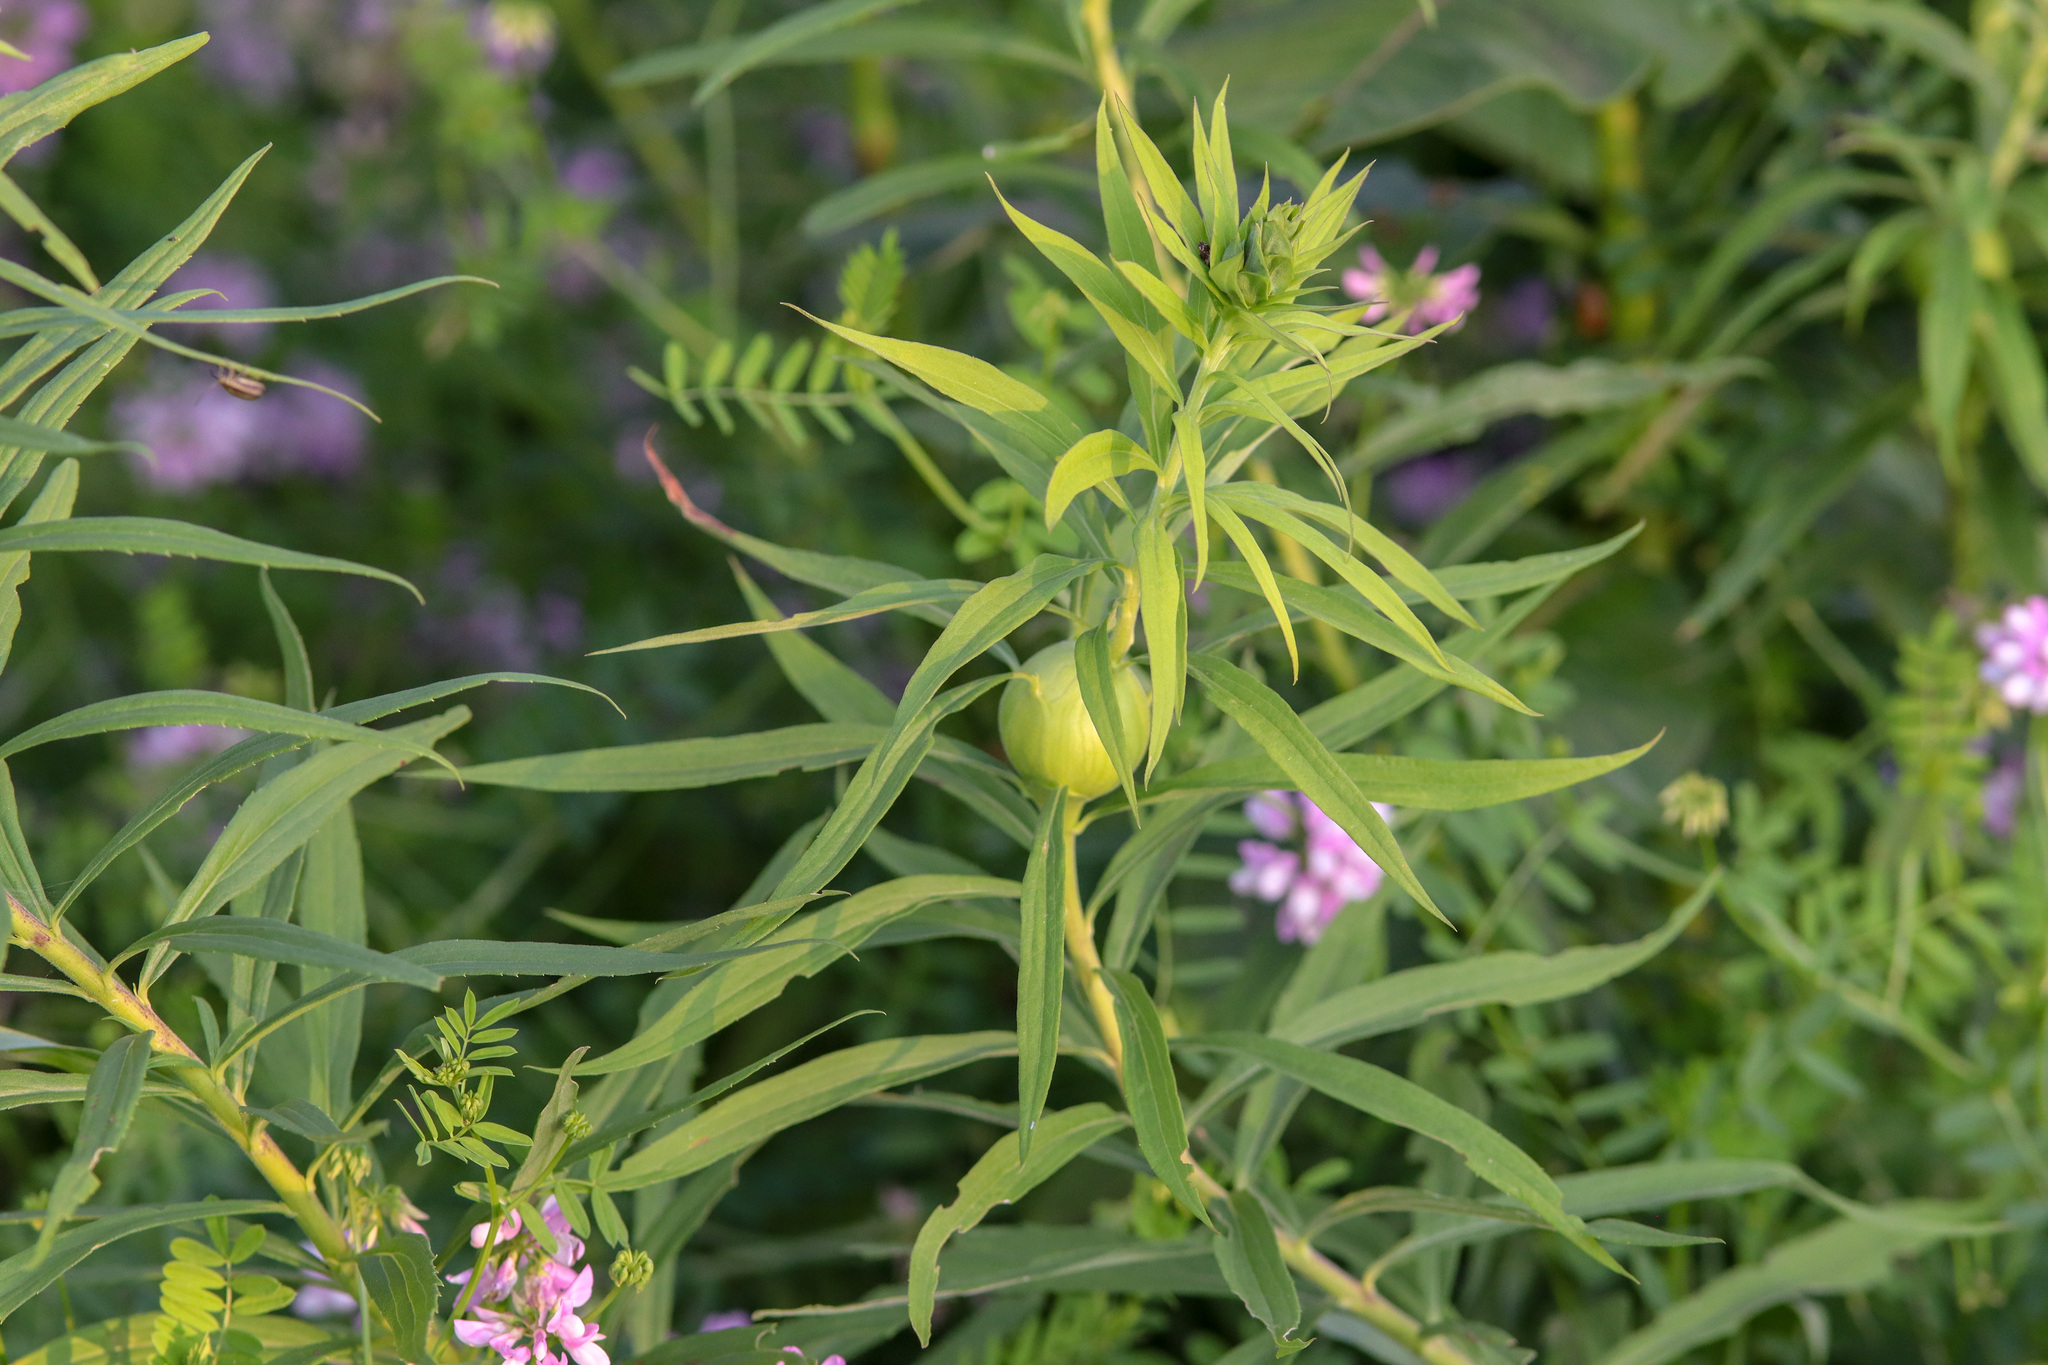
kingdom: Animalia
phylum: Arthropoda
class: Insecta
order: Diptera
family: Tephritidae
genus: Eurosta
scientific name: Eurosta solidaginis
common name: Goldenrod gall fly
